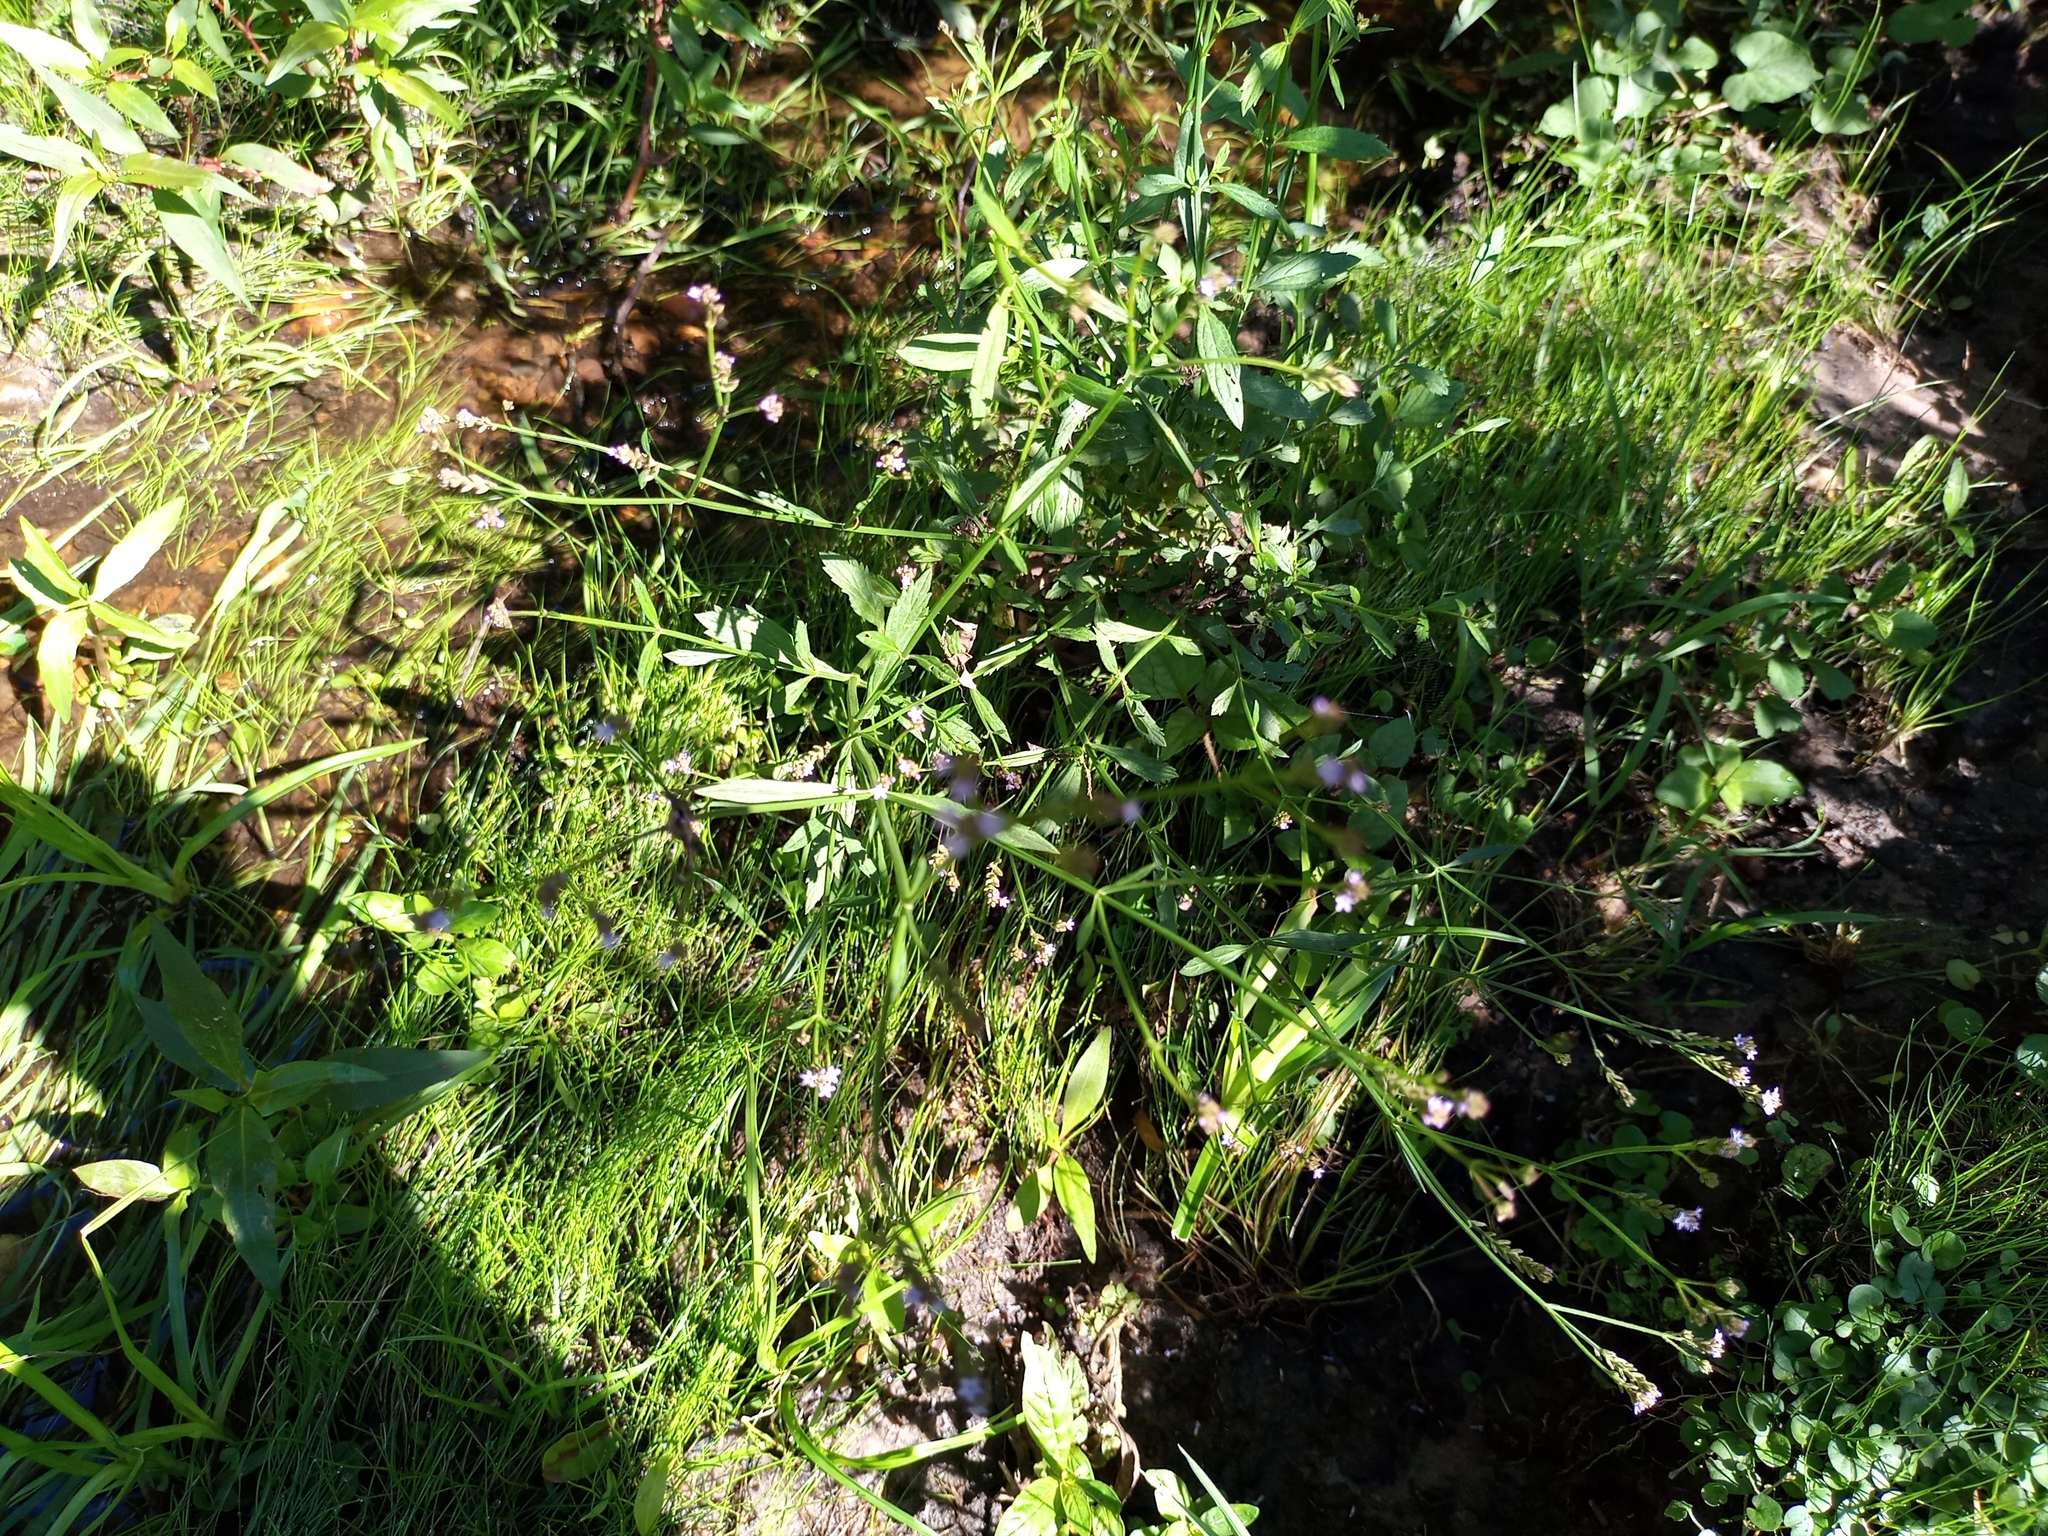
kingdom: Plantae
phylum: Tracheophyta
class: Magnoliopsida
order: Lamiales
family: Verbenaceae
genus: Verbena
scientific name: Verbena litoralis
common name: Seashore vervain
